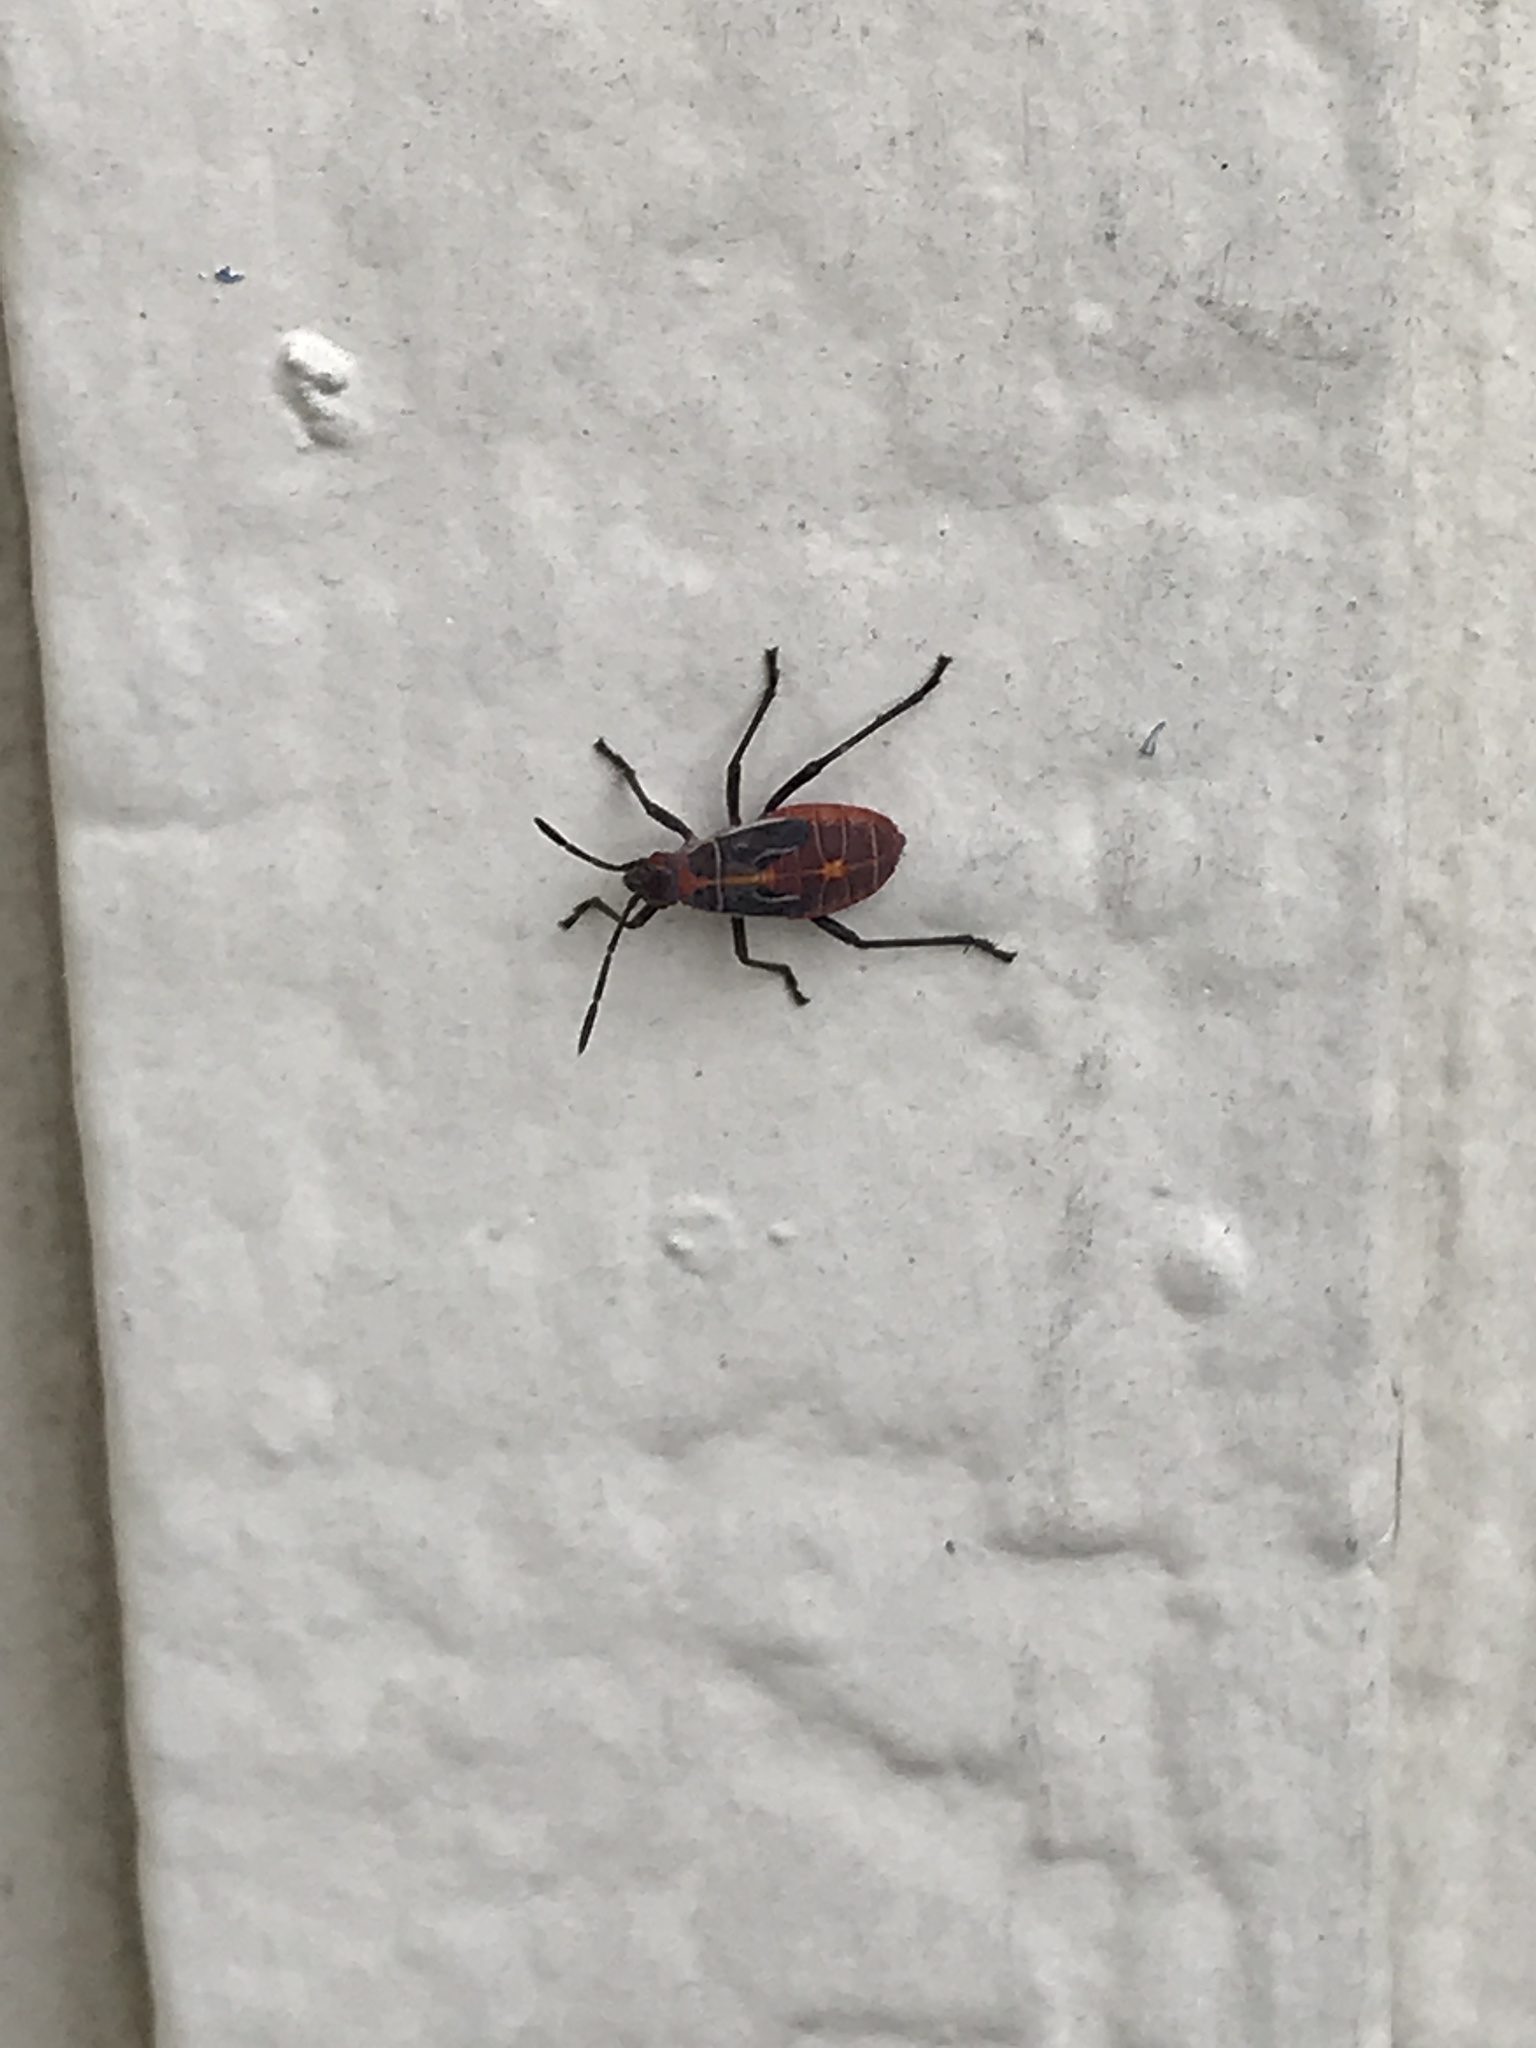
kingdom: Animalia
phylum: Arthropoda
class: Insecta
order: Hemiptera
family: Rhopalidae
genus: Boisea
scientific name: Boisea rubrolineata
